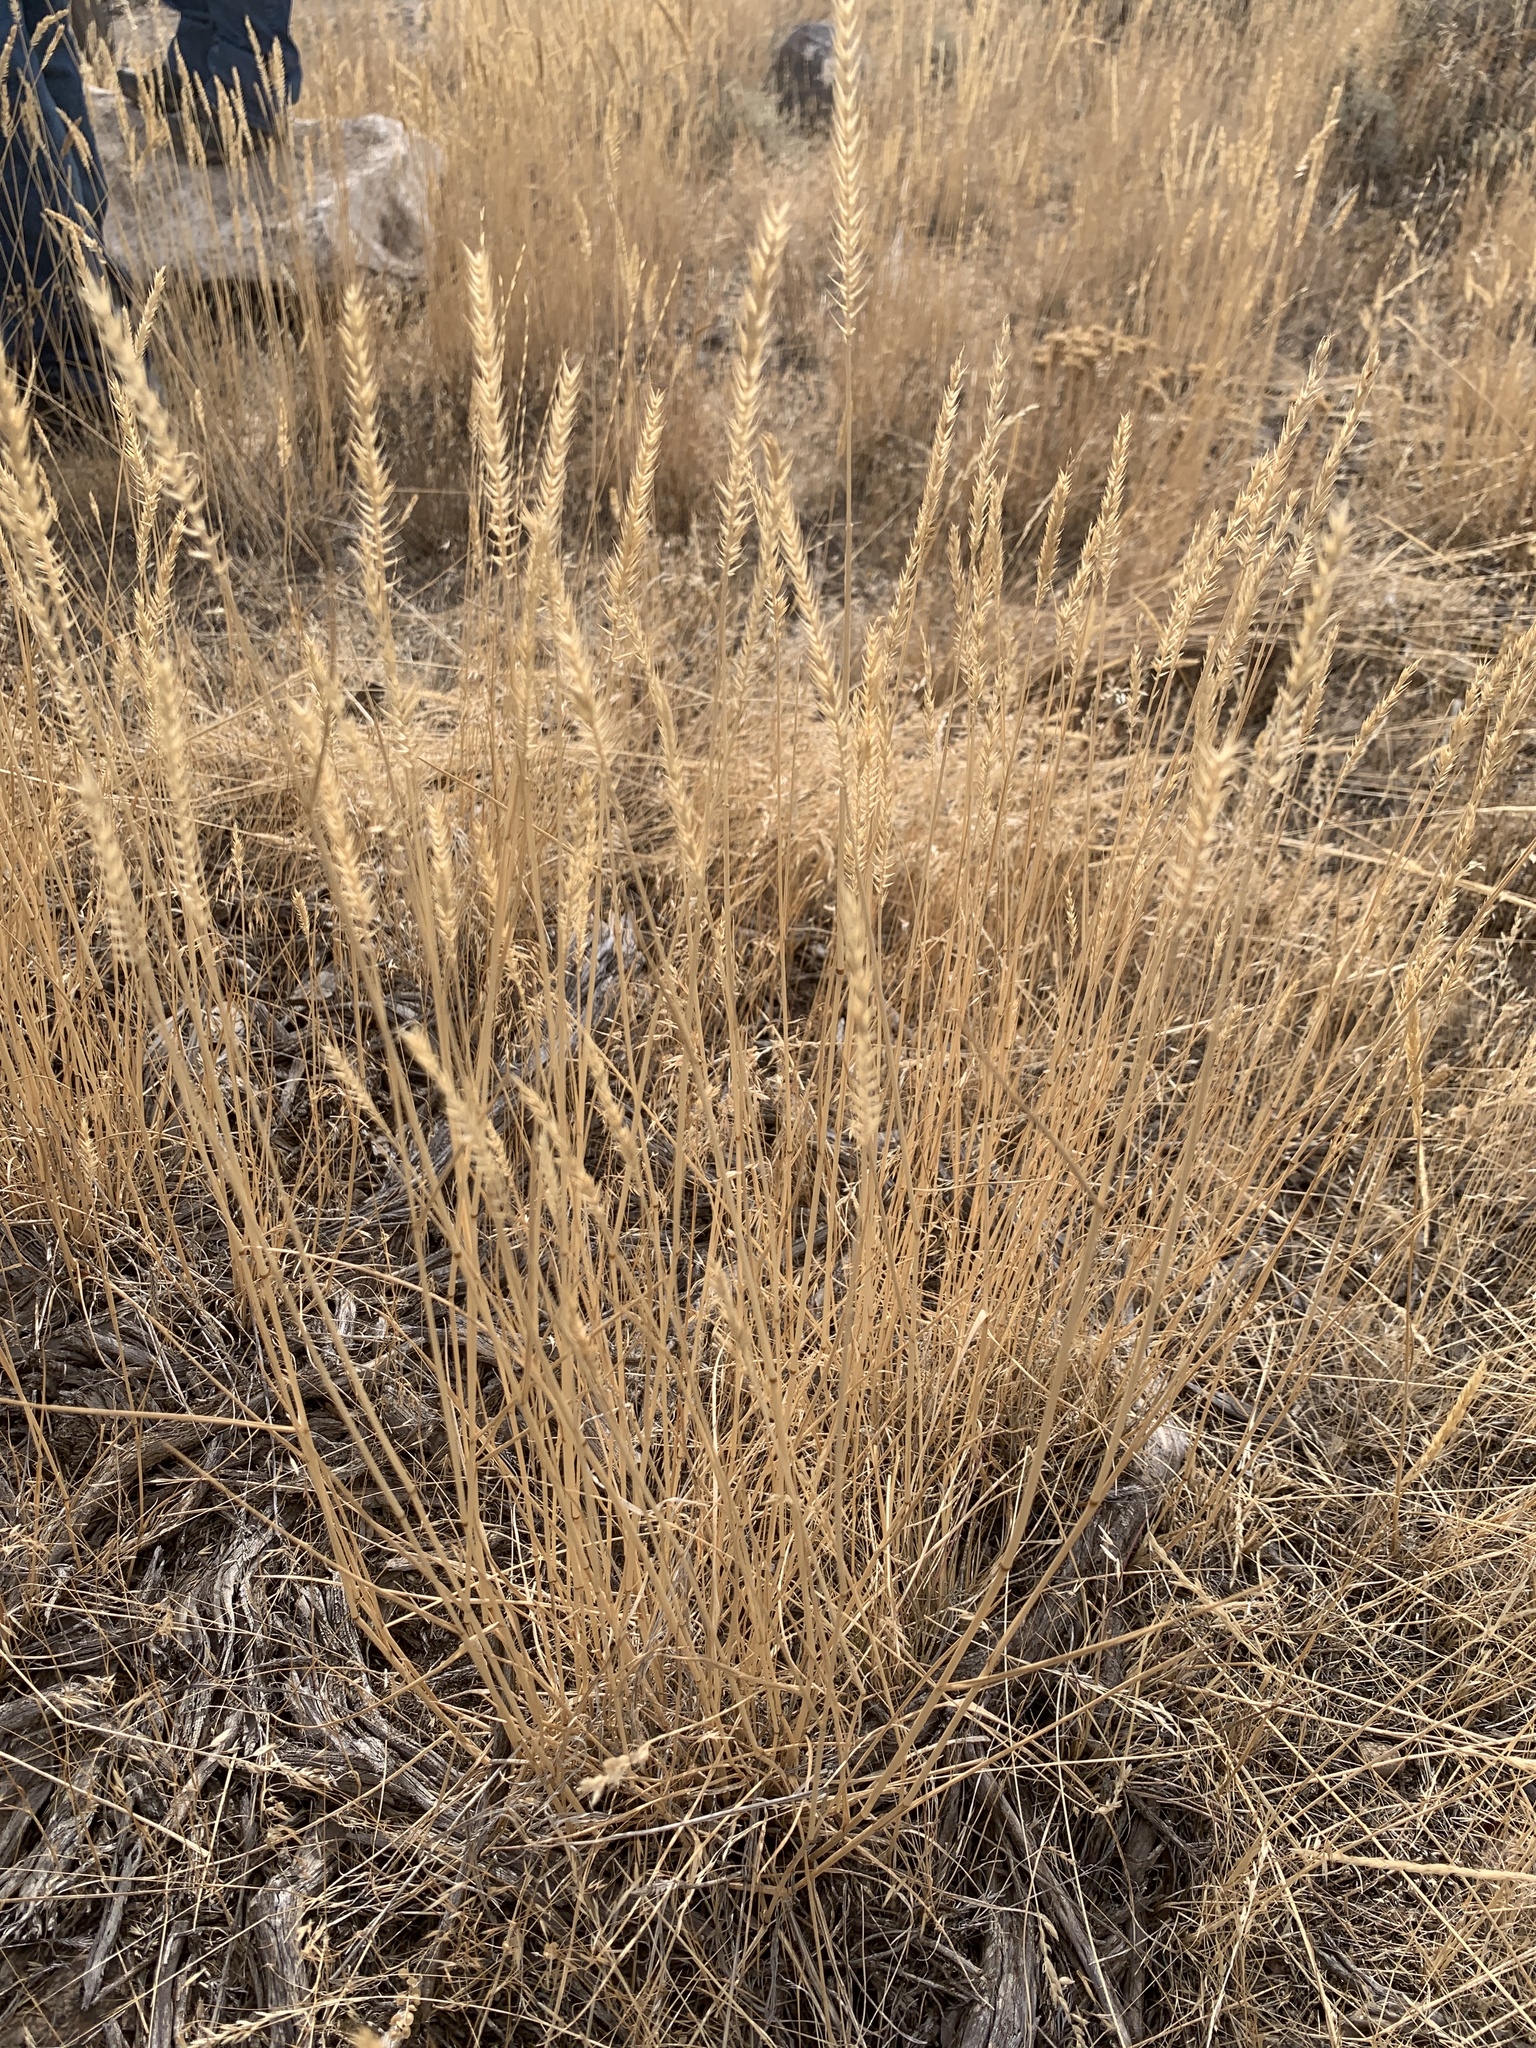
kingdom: Plantae
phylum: Tracheophyta
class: Liliopsida
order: Poales
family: Poaceae
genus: Agropyron
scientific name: Agropyron cristatum
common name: Crested wheatgrass
